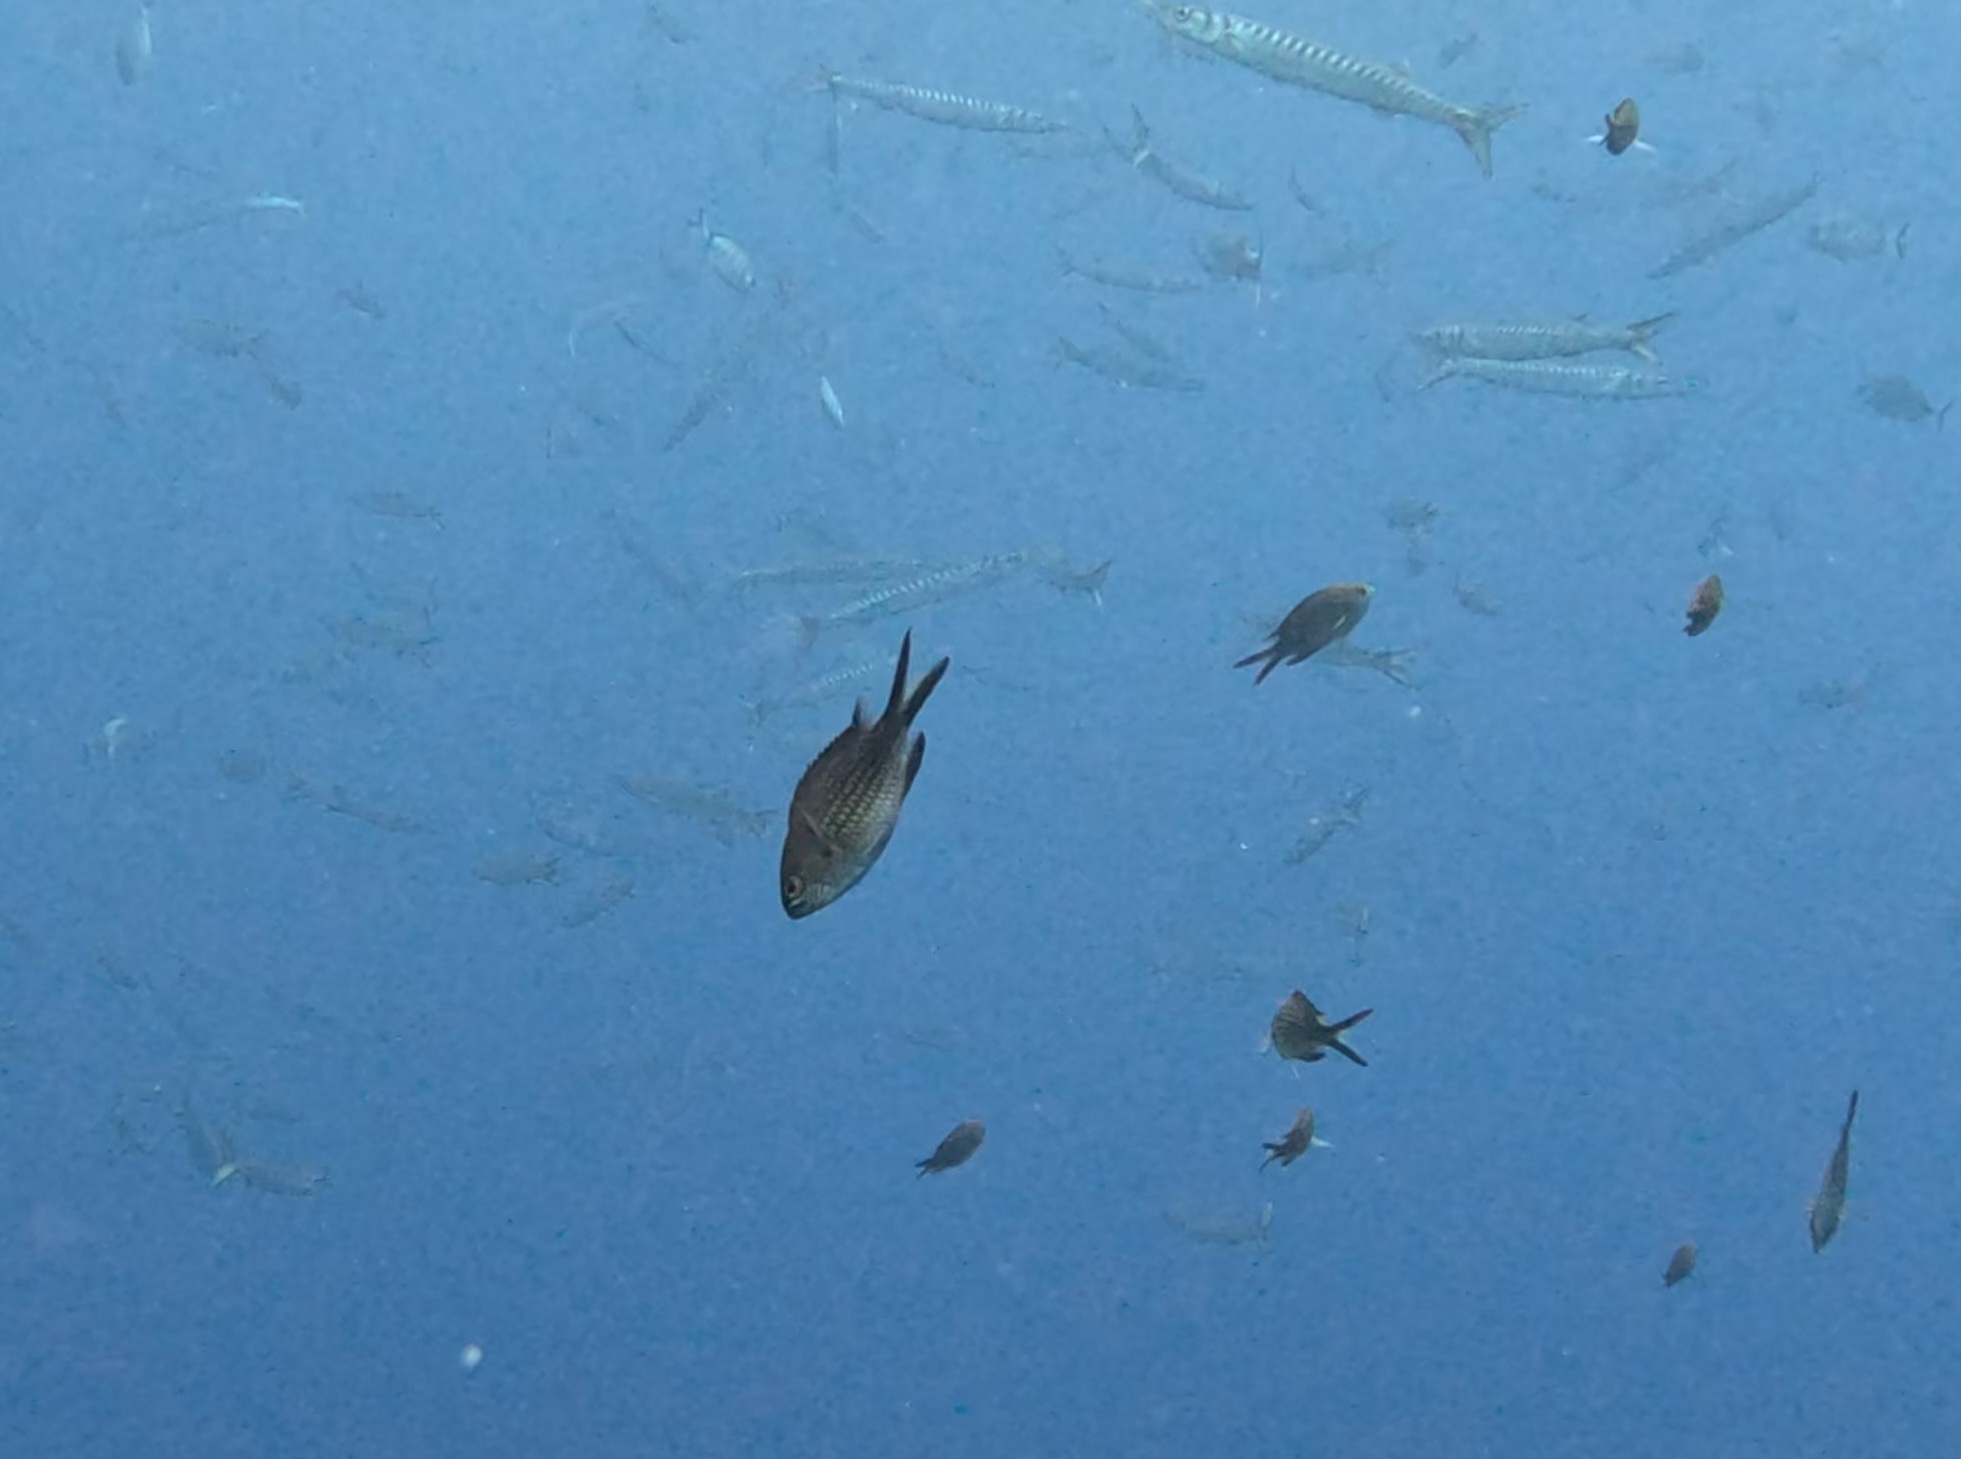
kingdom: Animalia
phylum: Chordata
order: Perciformes
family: Pomacentridae
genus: Chromis
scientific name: Chromis chromis
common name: Damselfish
